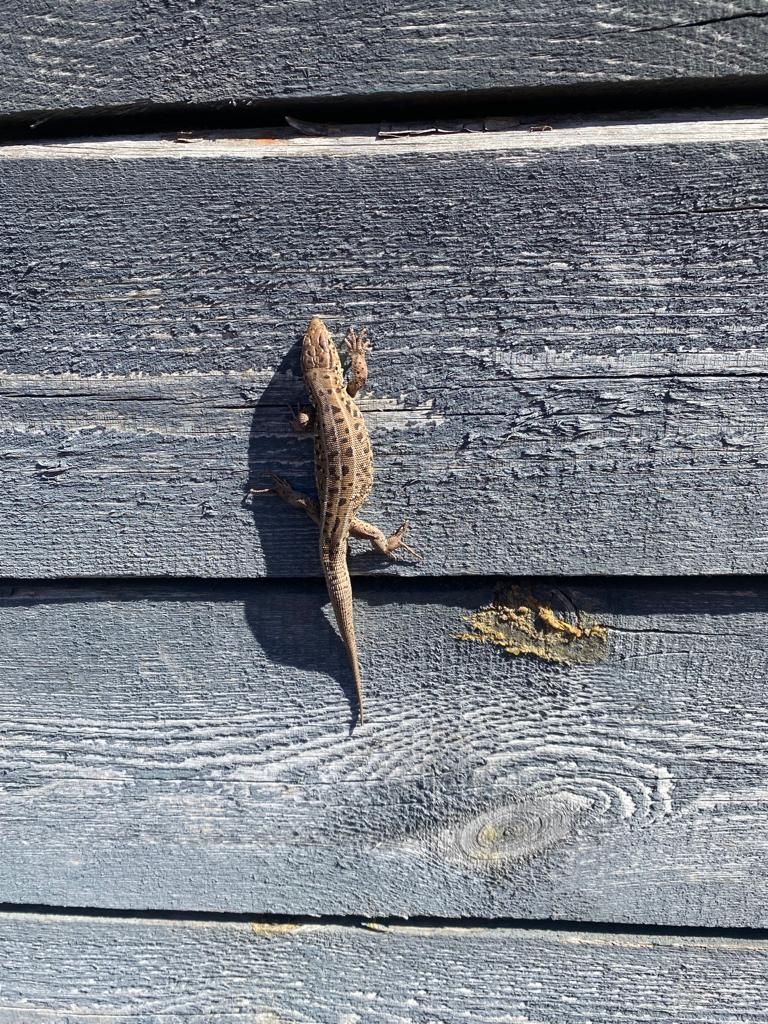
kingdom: Animalia
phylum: Chordata
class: Squamata
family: Lacertidae
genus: Lacerta
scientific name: Lacerta agilis
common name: Sand lizard
